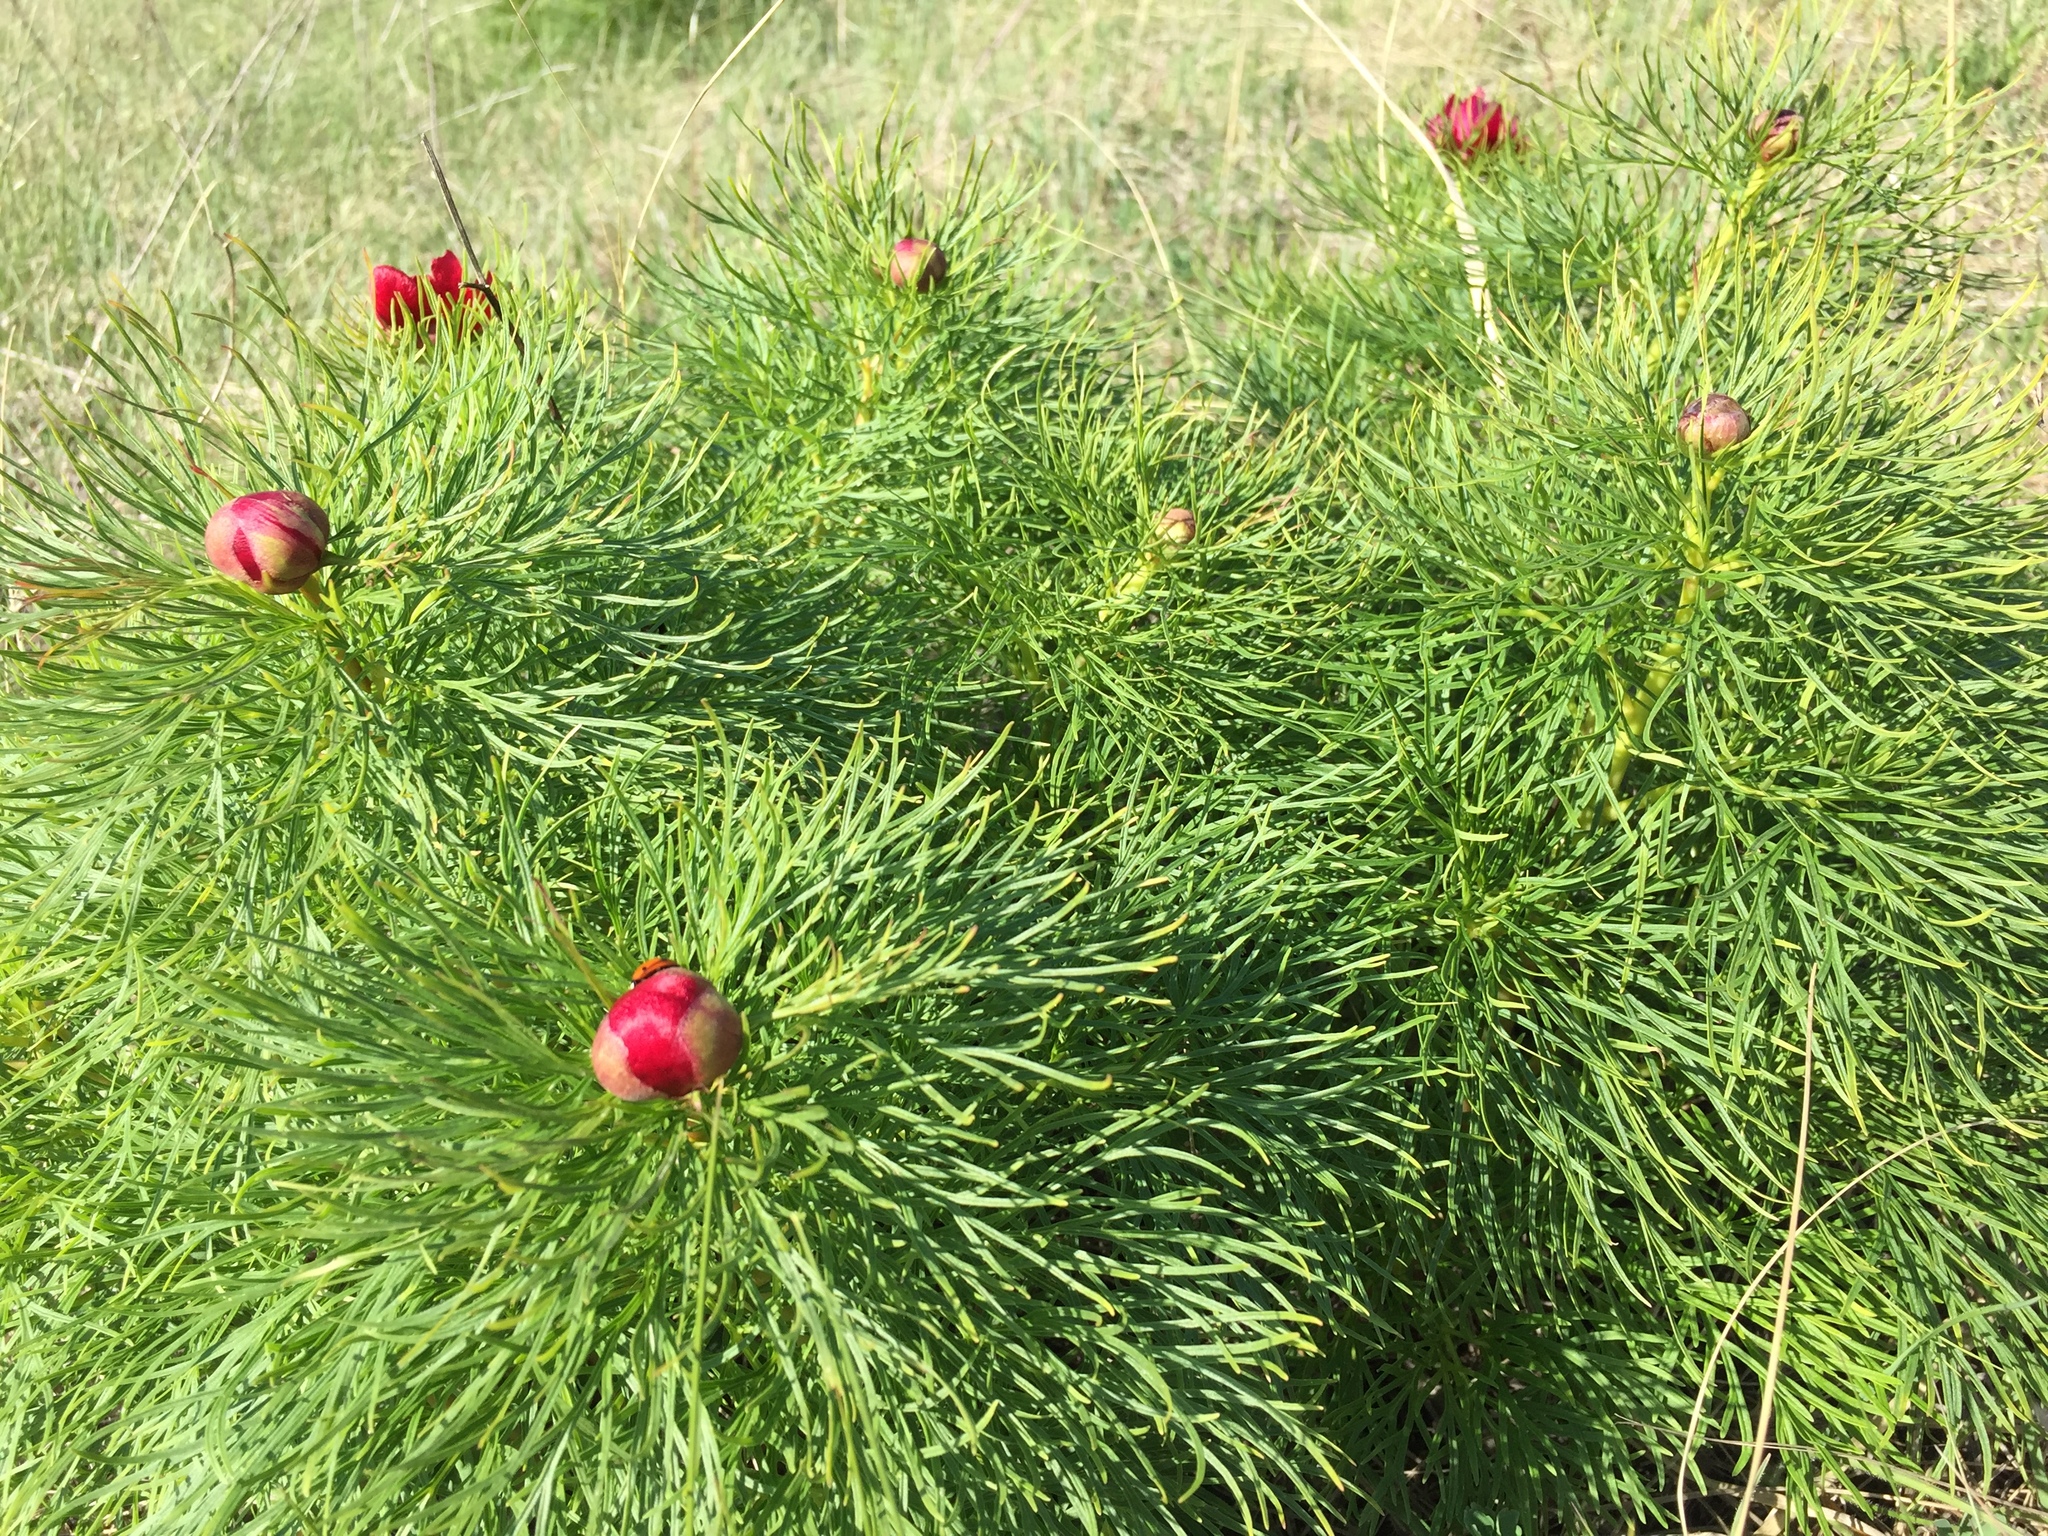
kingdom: Plantae
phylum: Tracheophyta
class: Magnoliopsida
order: Saxifragales
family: Paeoniaceae
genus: Paeonia
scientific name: Paeonia tenuifolia
